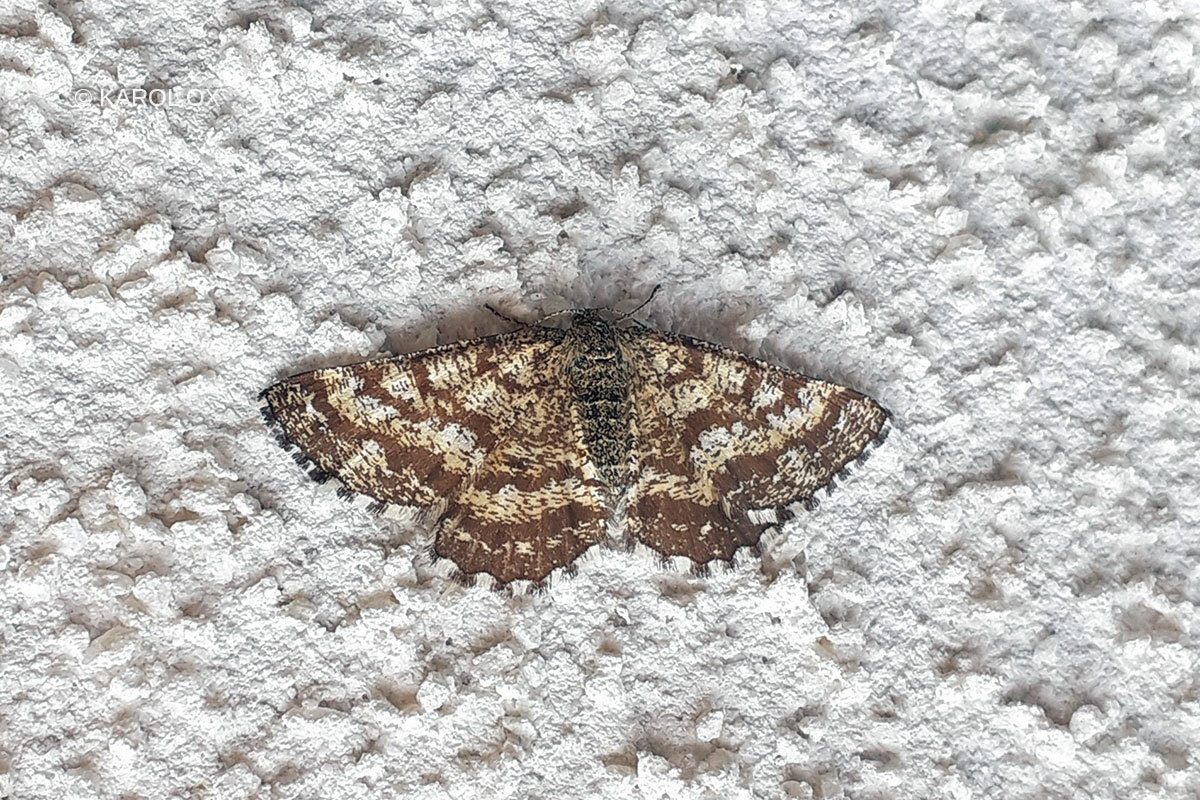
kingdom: Animalia
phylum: Arthropoda
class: Insecta
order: Lepidoptera
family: Geometridae
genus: Ematurga
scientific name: Ematurga atomaria
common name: Common heath
